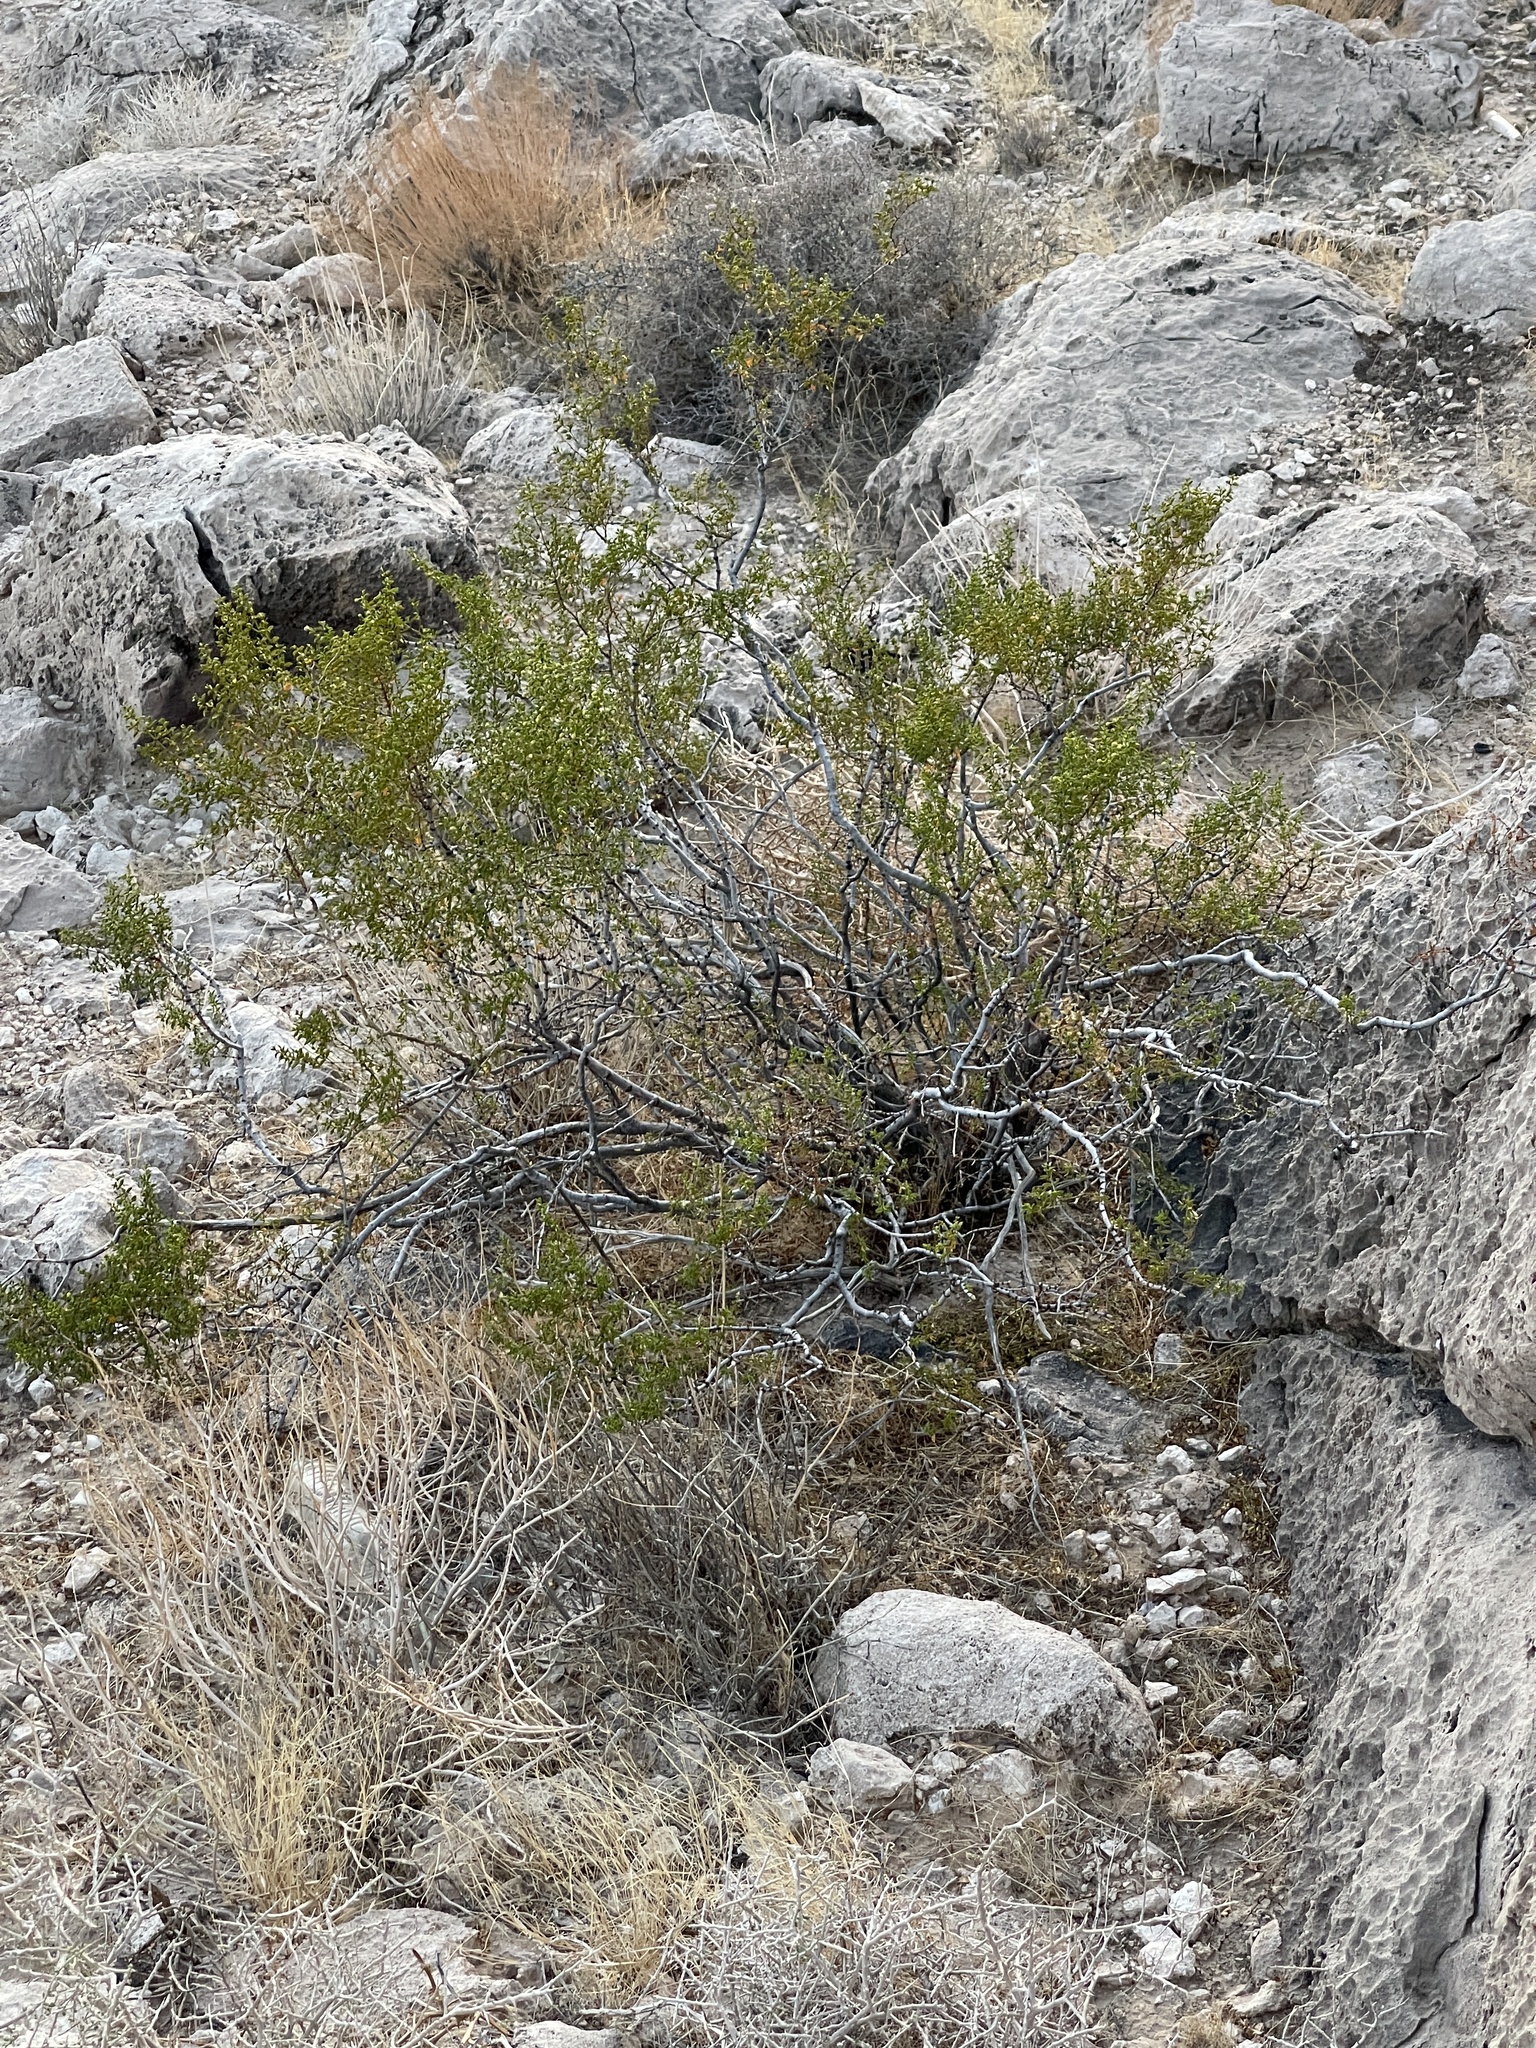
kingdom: Plantae
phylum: Tracheophyta
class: Magnoliopsida
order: Zygophyllales
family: Zygophyllaceae
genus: Larrea
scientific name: Larrea tridentata
